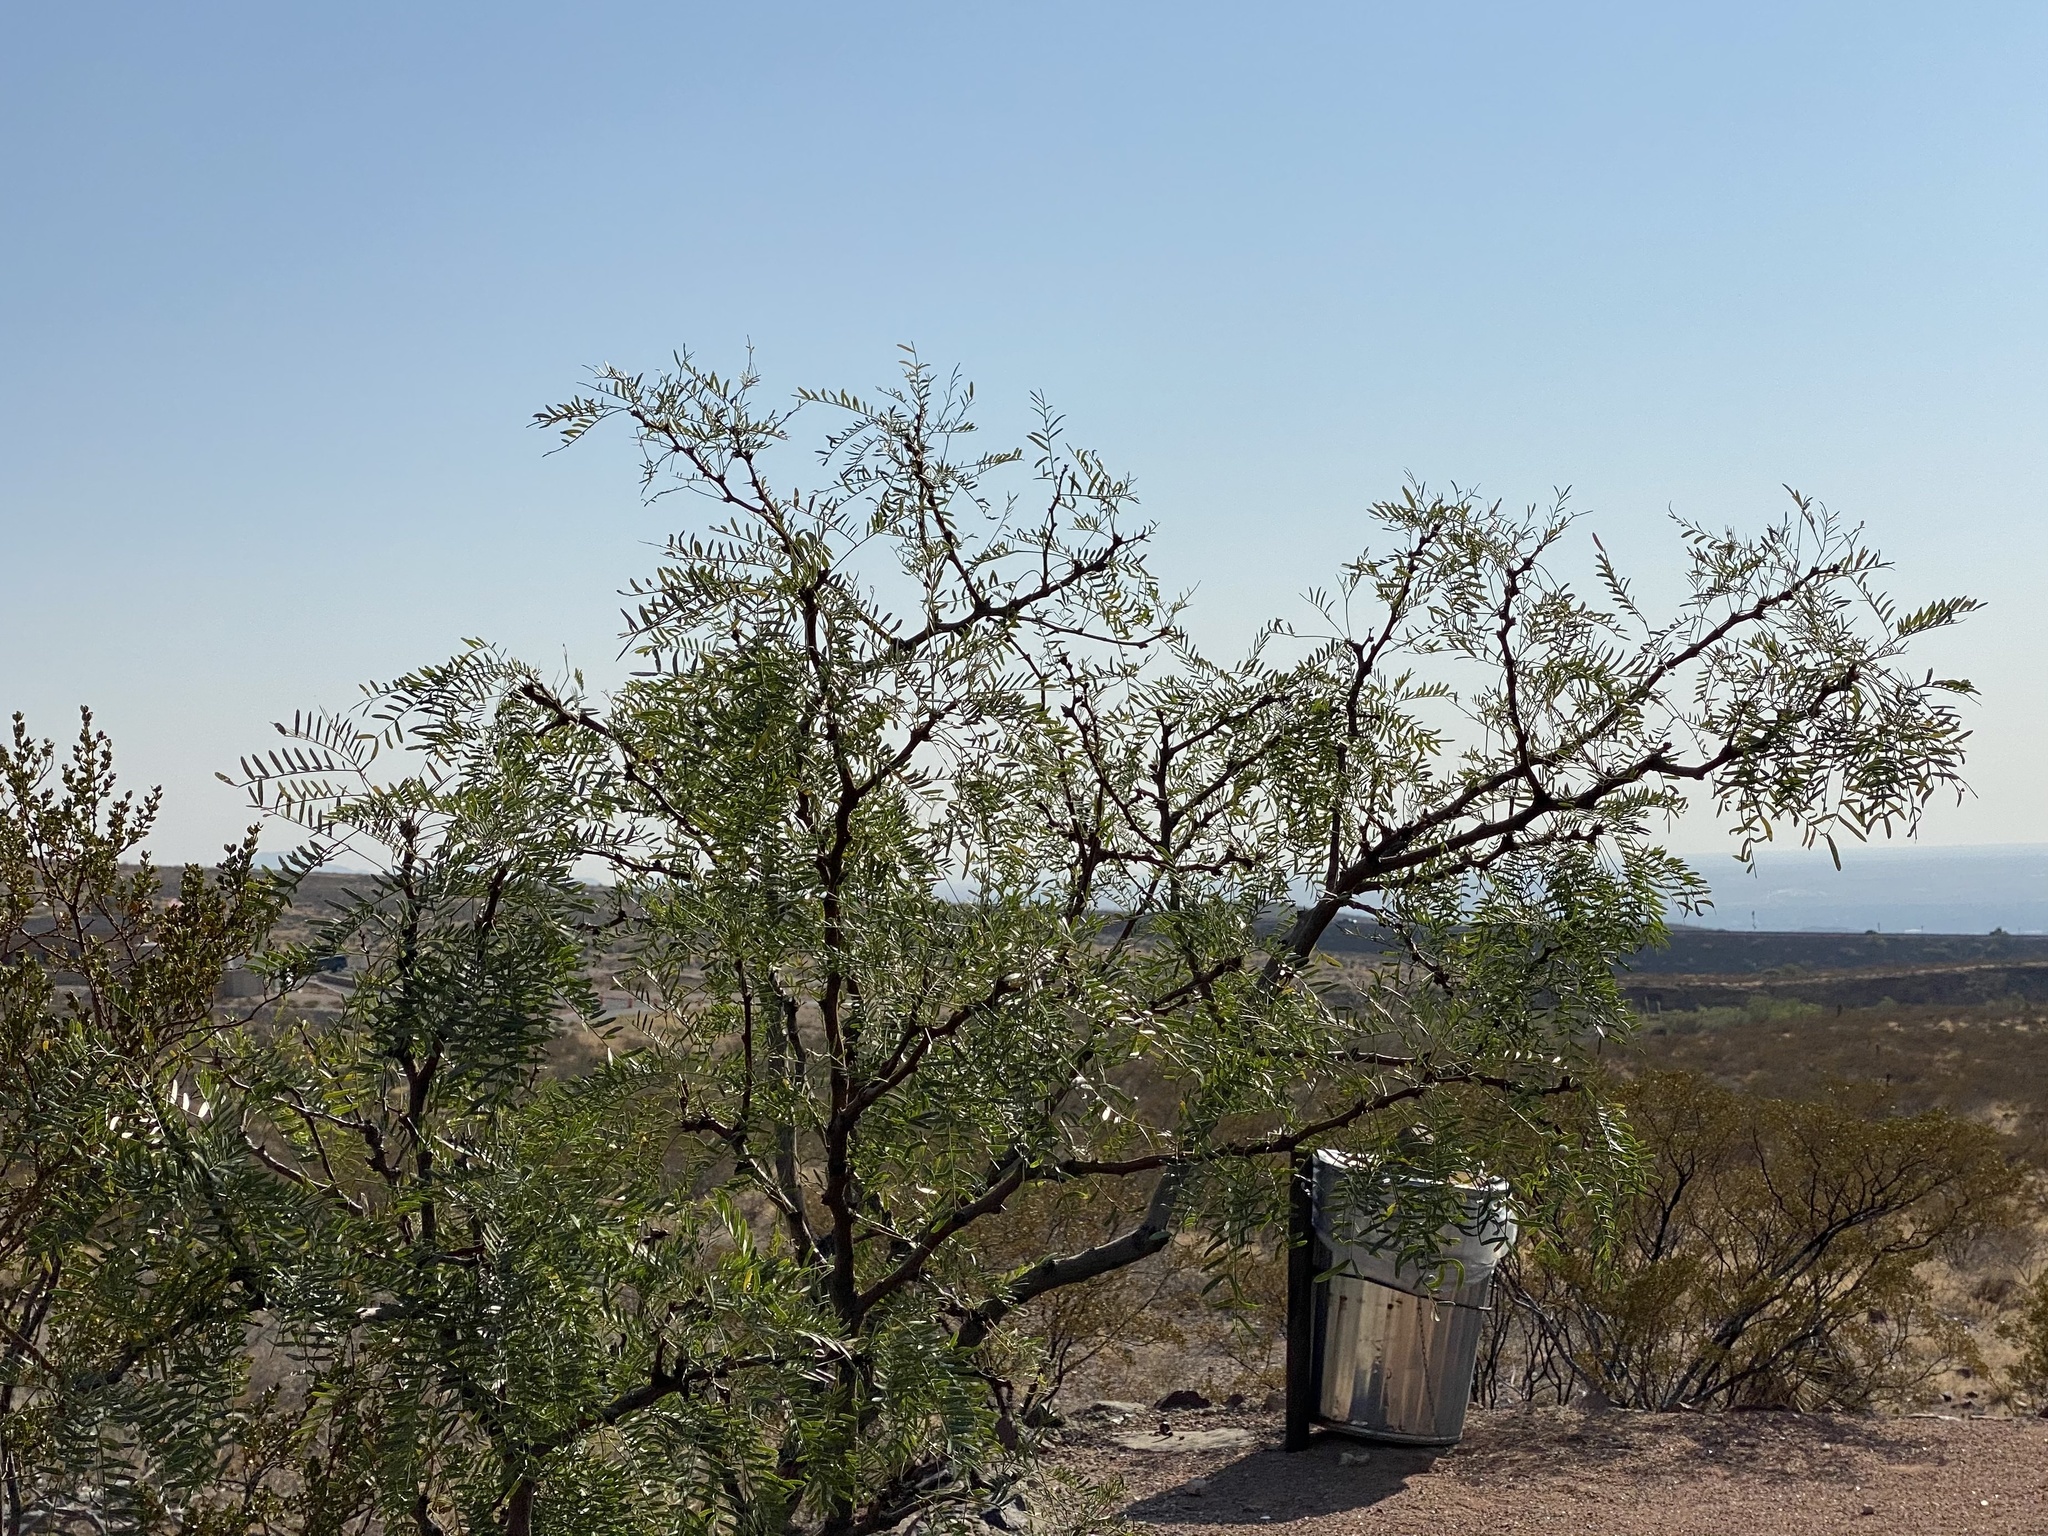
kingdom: Plantae
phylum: Tracheophyta
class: Magnoliopsida
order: Fabales
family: Fabaceae
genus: Prosopis
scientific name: Prosopis glandulosa
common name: Honey mesquite
